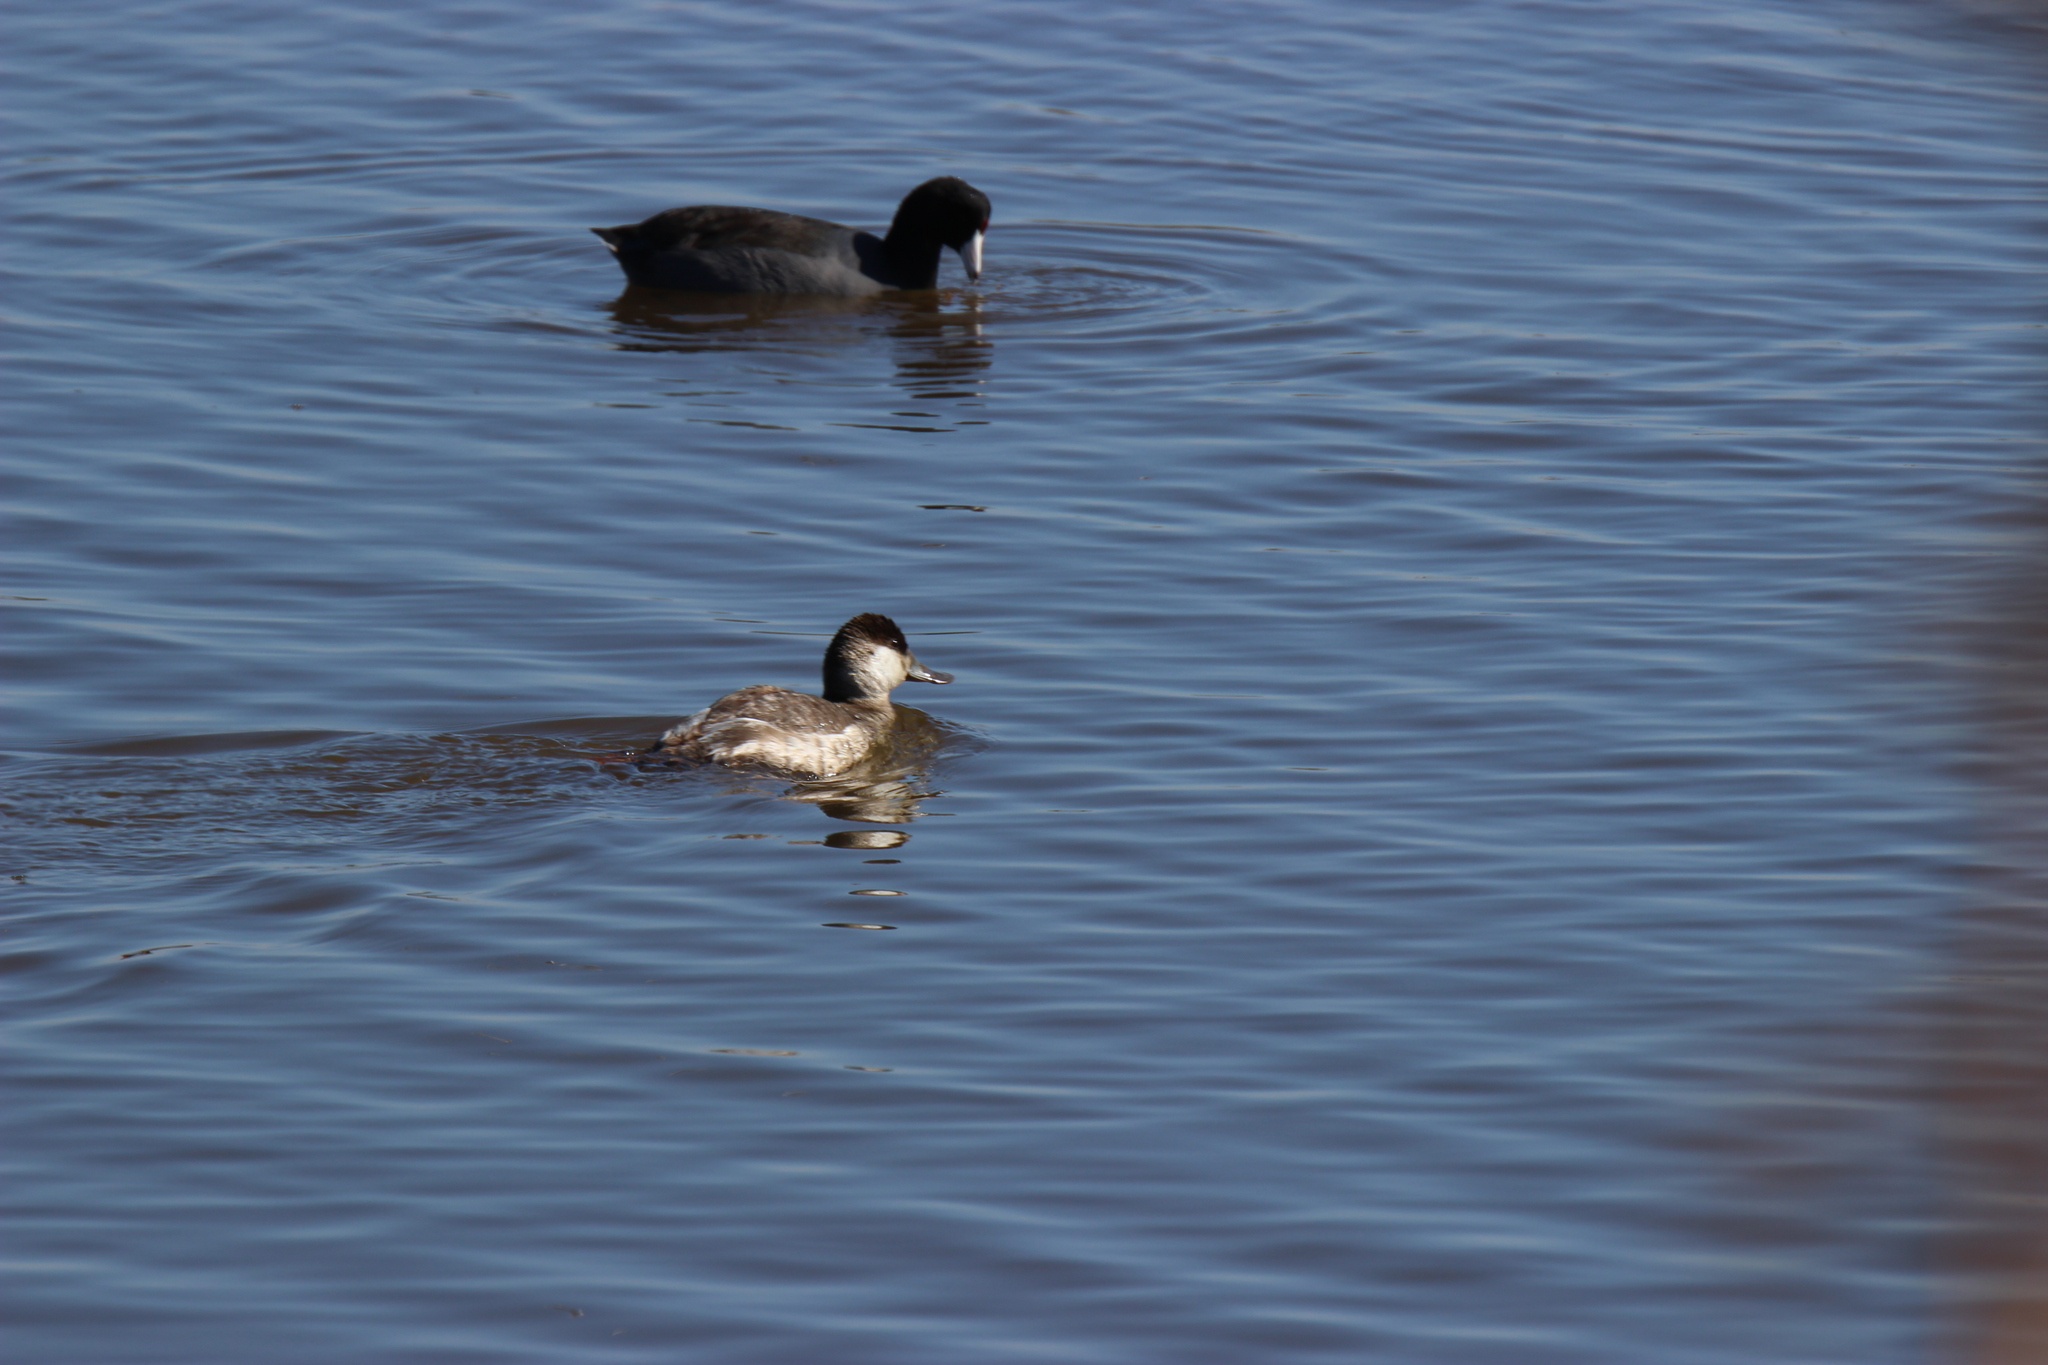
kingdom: Animalia
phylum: Chordata
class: Aves
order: Anseriformes
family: Anatidae
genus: Oxyura
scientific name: Oxyura jamaicensis
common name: Ruddy duck
